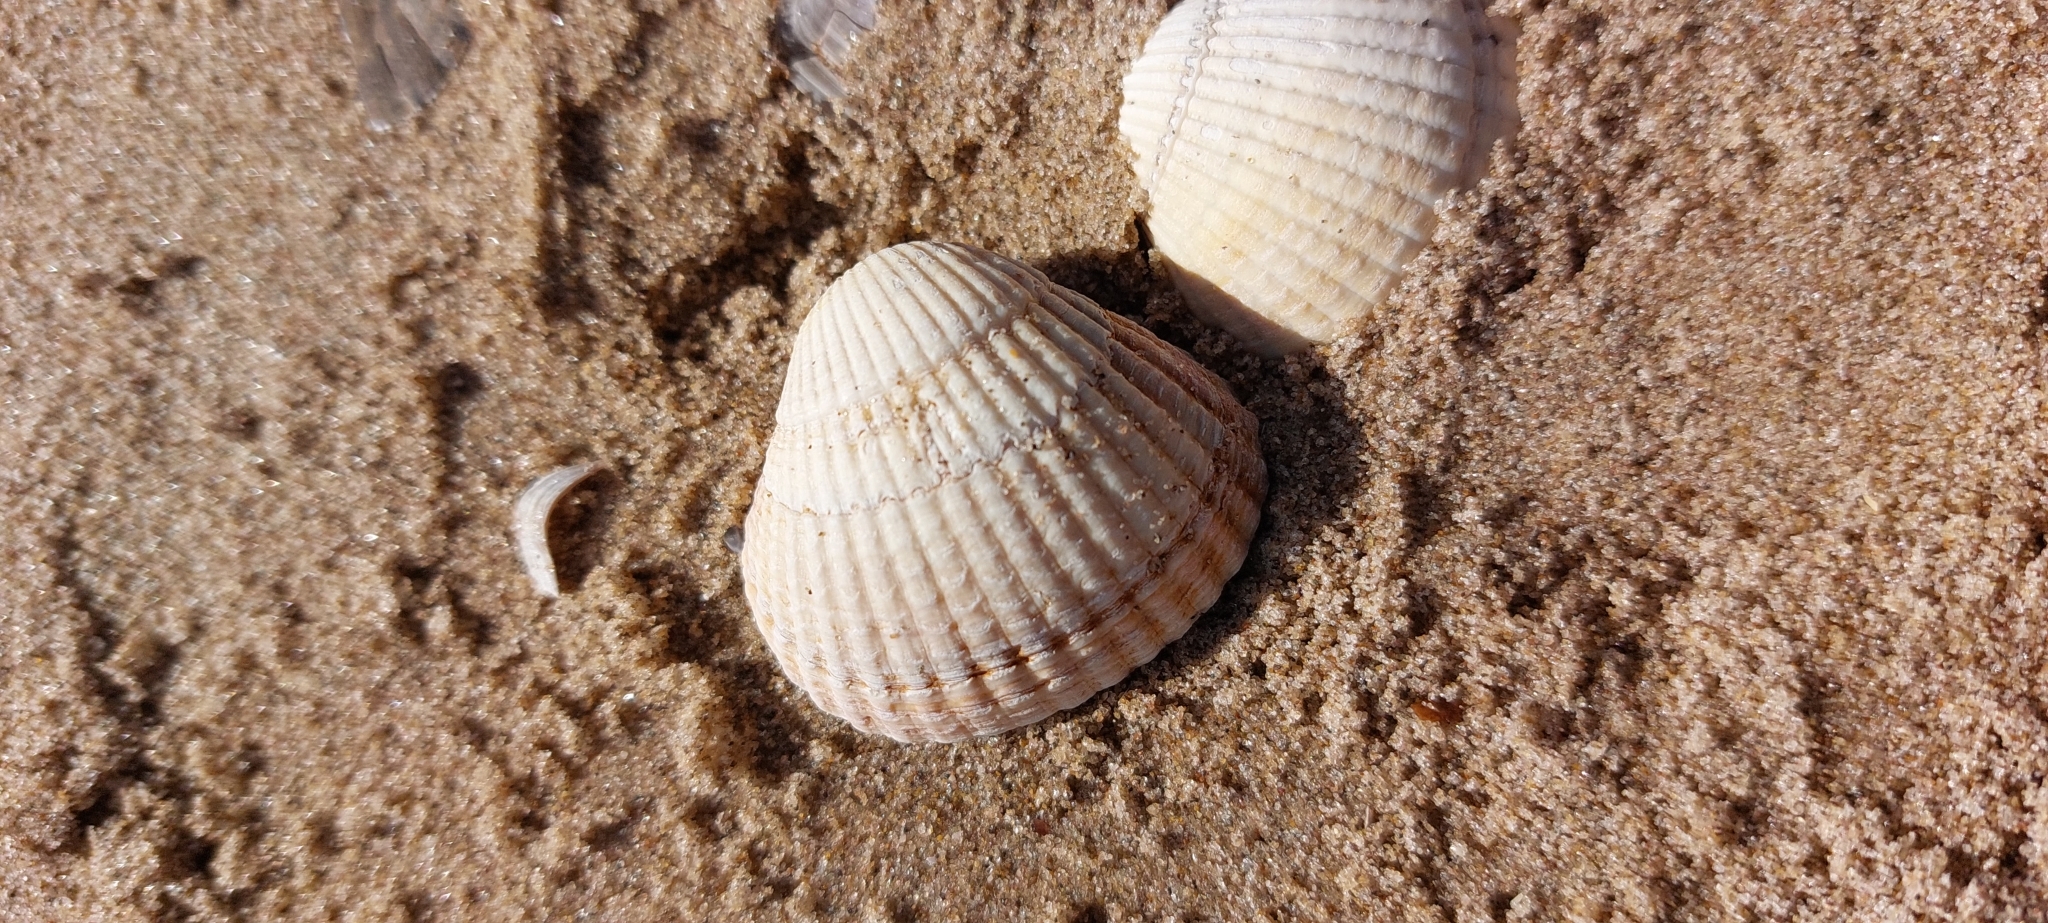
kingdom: Animalia
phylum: Mollusca
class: Bivalvia
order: Cardiida
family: Cardiidae
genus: Cerastoderma
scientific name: Cerastoderma edule
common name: Common cockle
